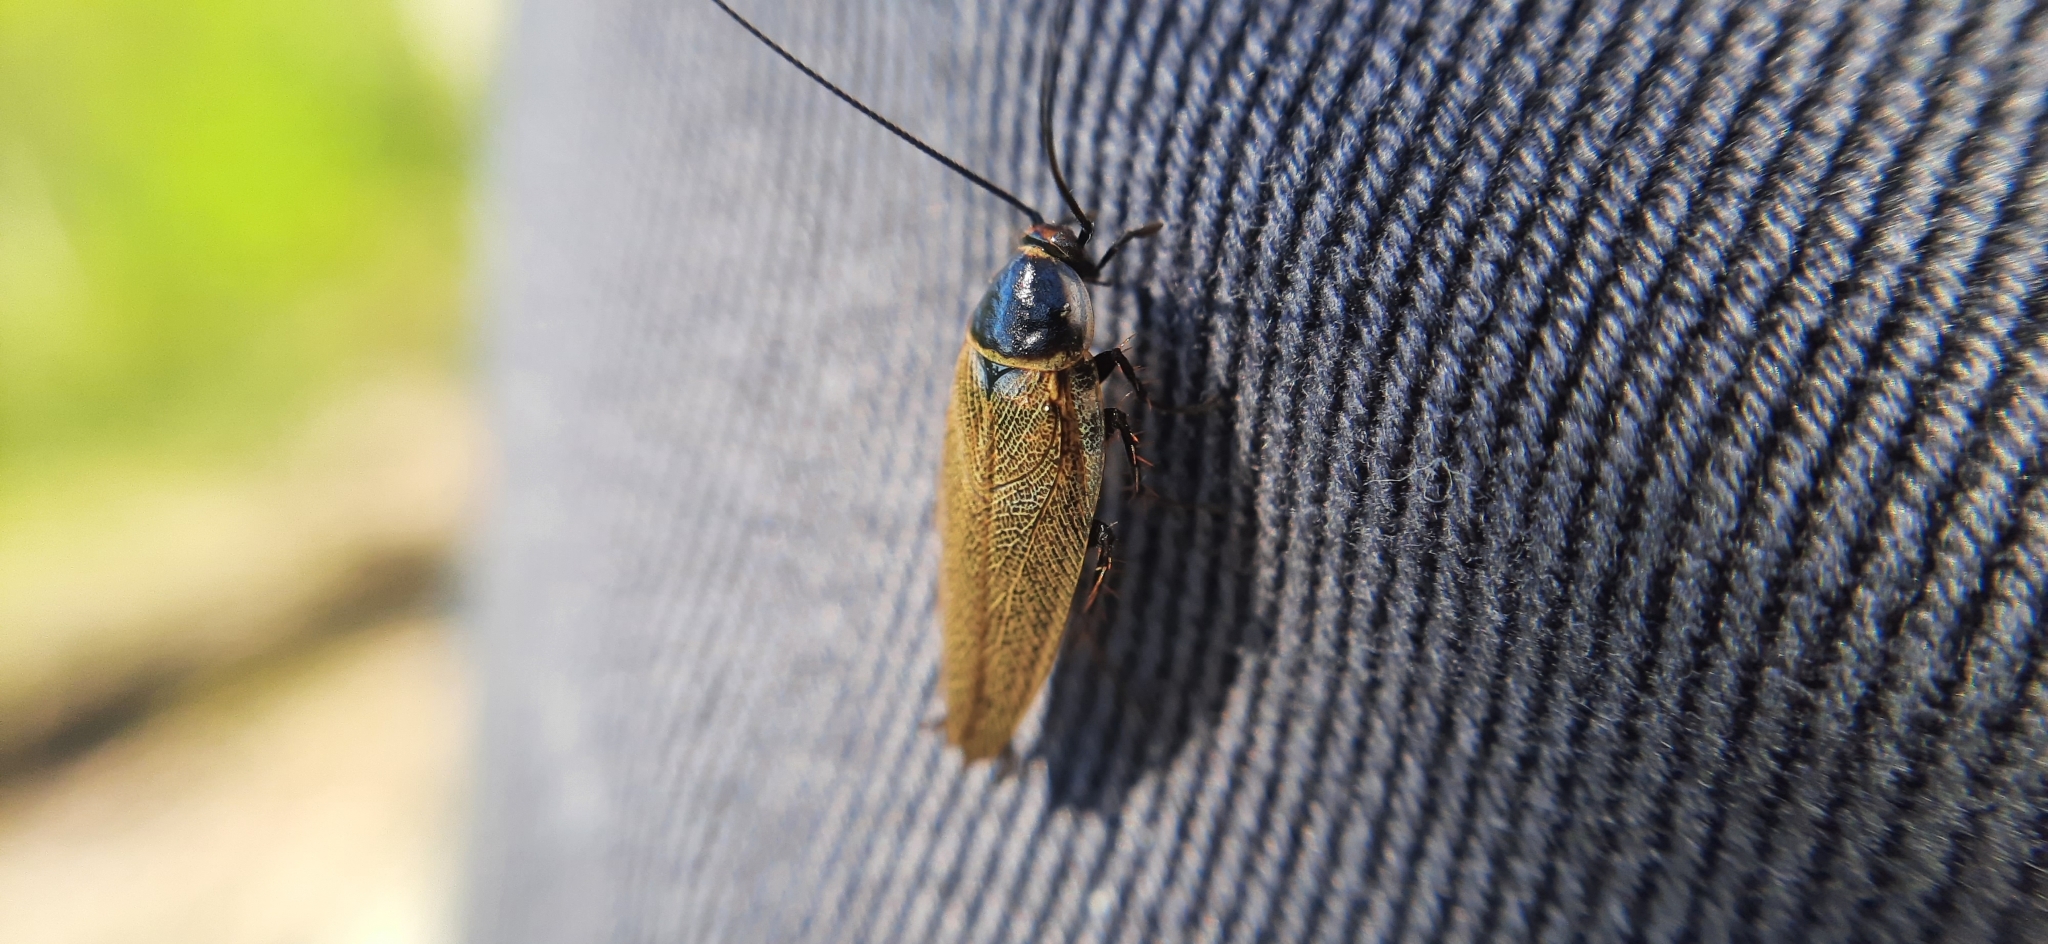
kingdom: Animalia
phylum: Arthropoda
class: Insecta
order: Blattodea
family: Ectobiidae
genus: Ectobius
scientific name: Ectobius erythronotus
